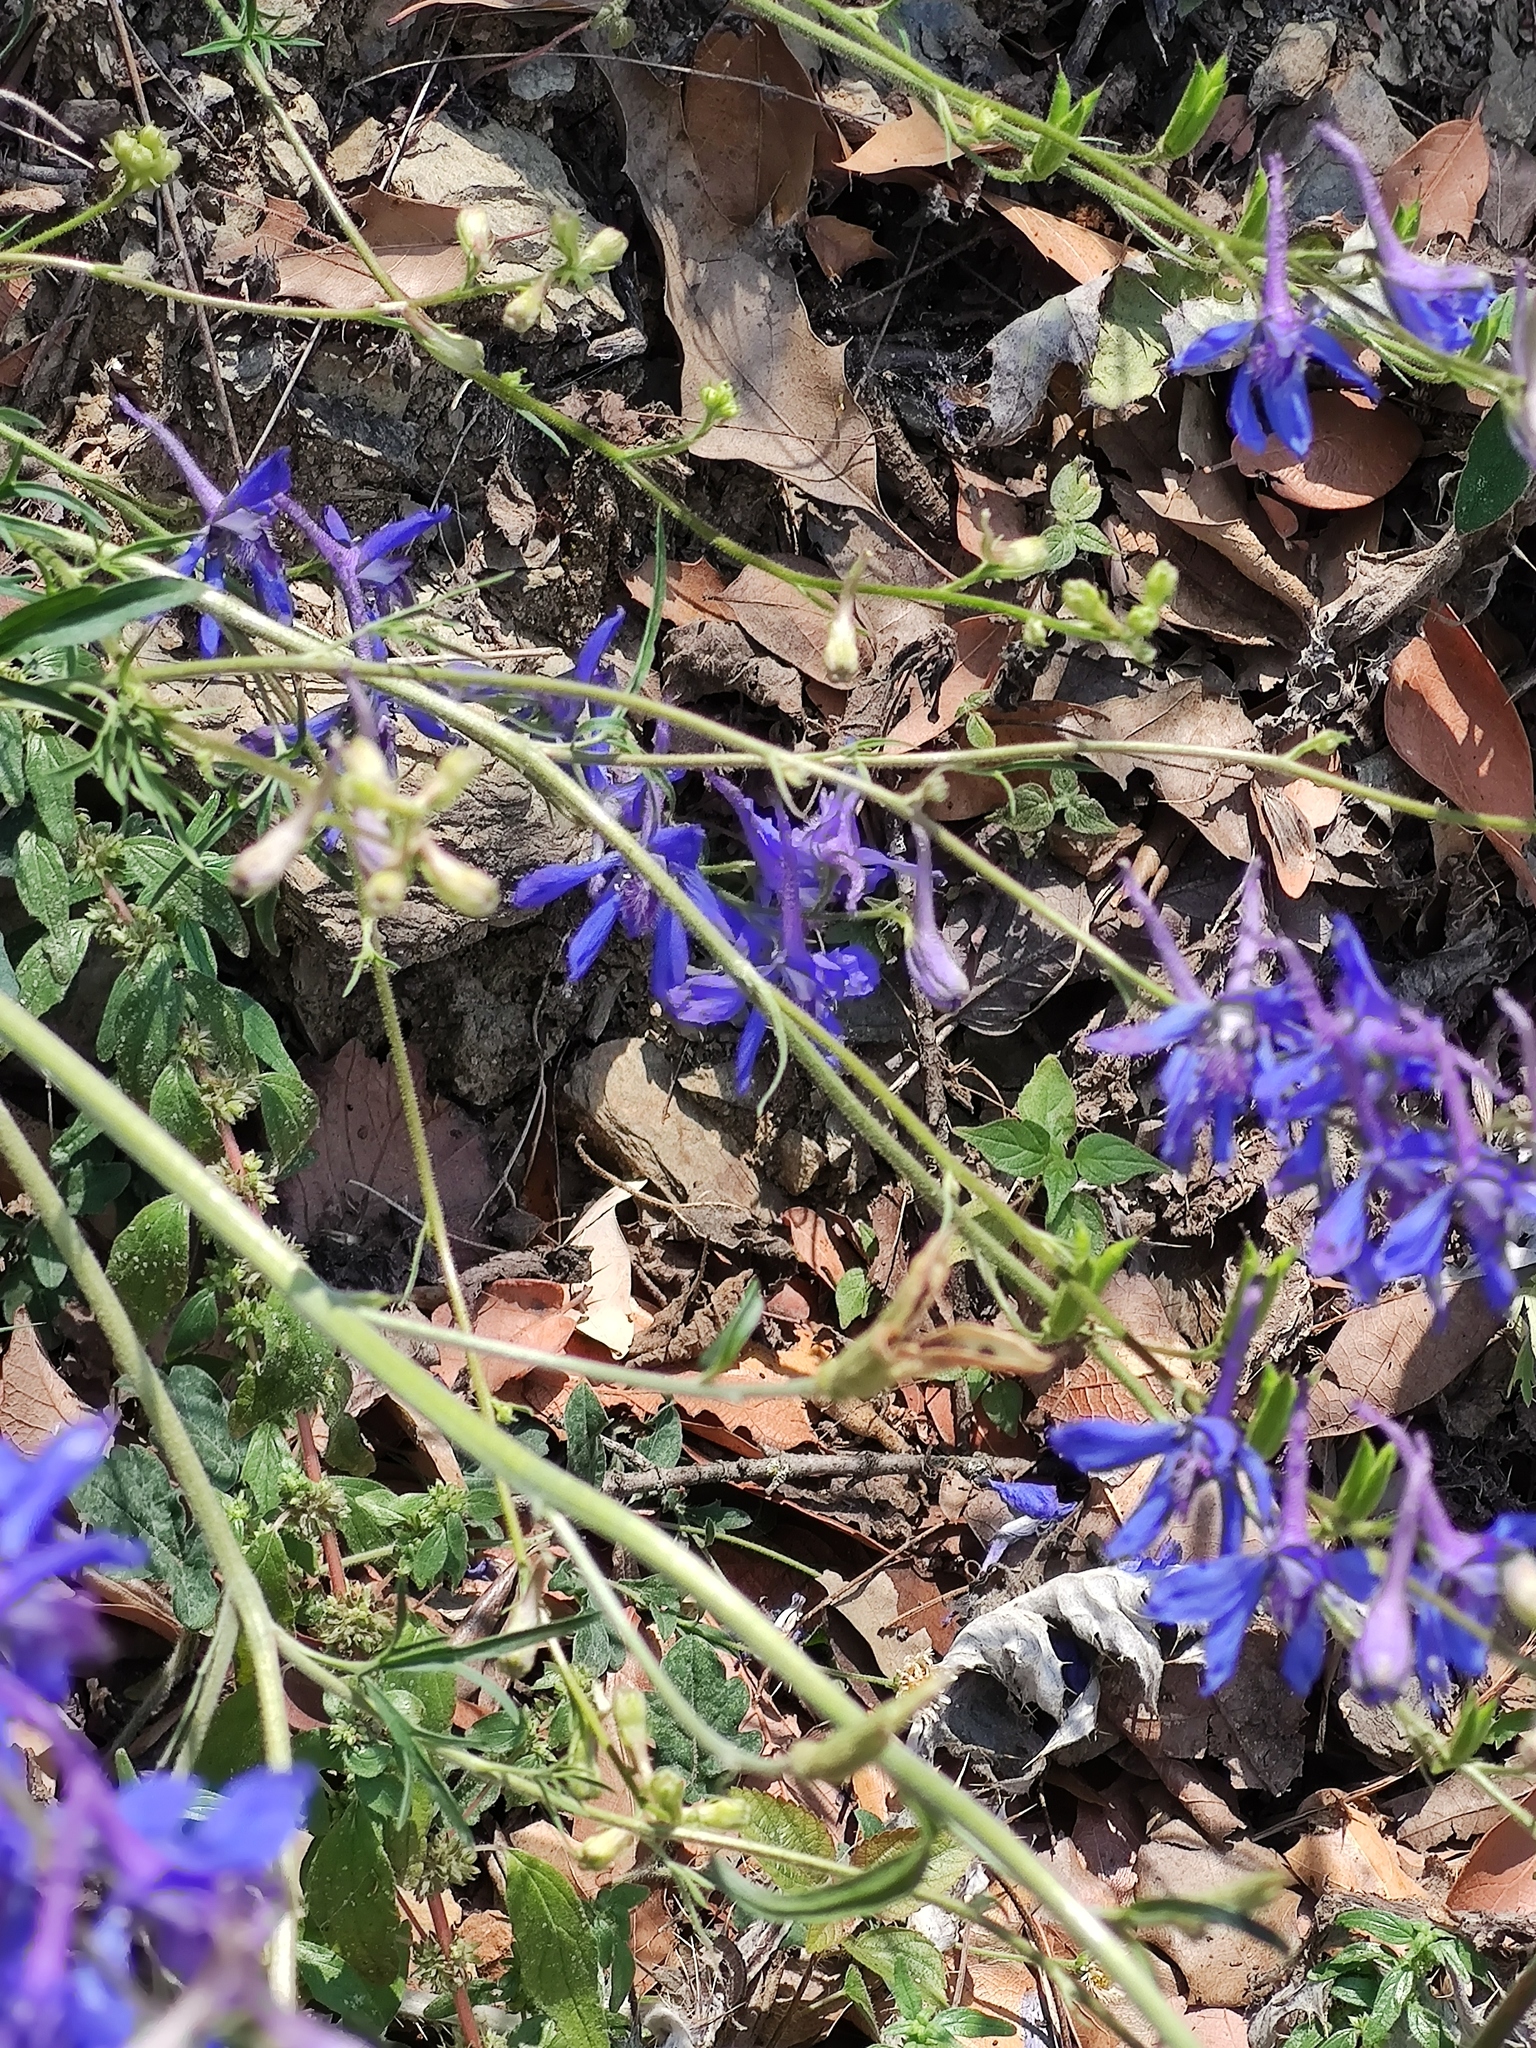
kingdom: Plantae
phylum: Tracheophyta
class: Magnoliopsida
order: Ranunculales
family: Ranunculaceae
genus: Delphinium
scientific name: Delphinium madrense
